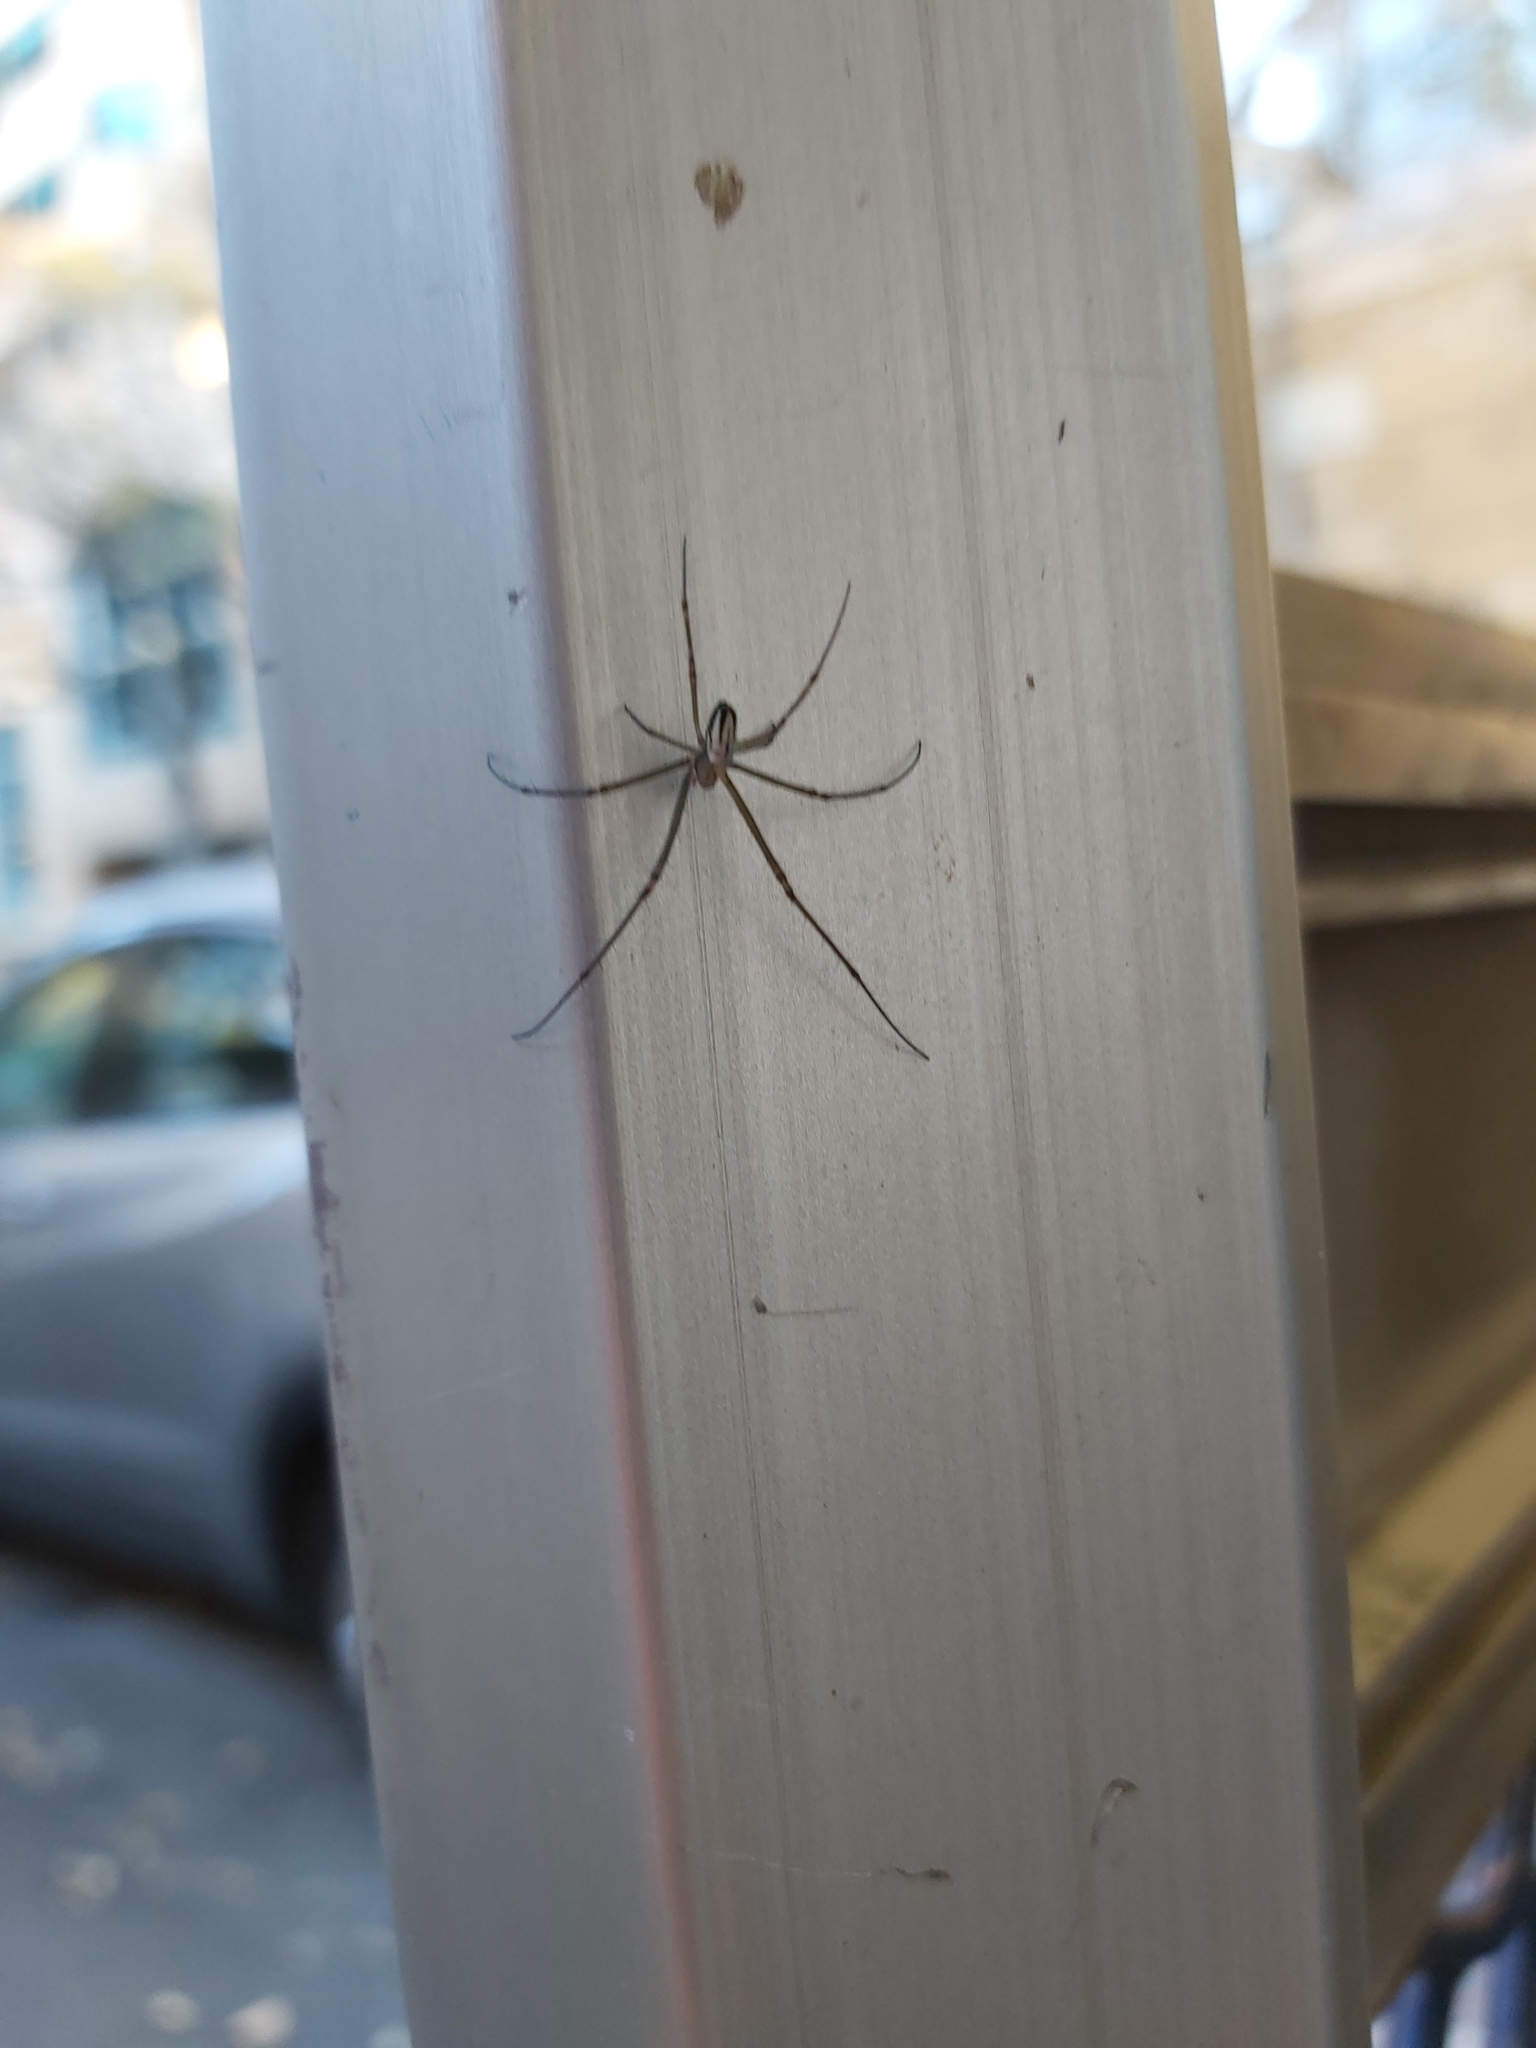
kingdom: Animalia
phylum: Arthropoda
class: Arachnida
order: Araneae
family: Tetragnathidae
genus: Leucauge
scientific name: Leucauge dromedaria
